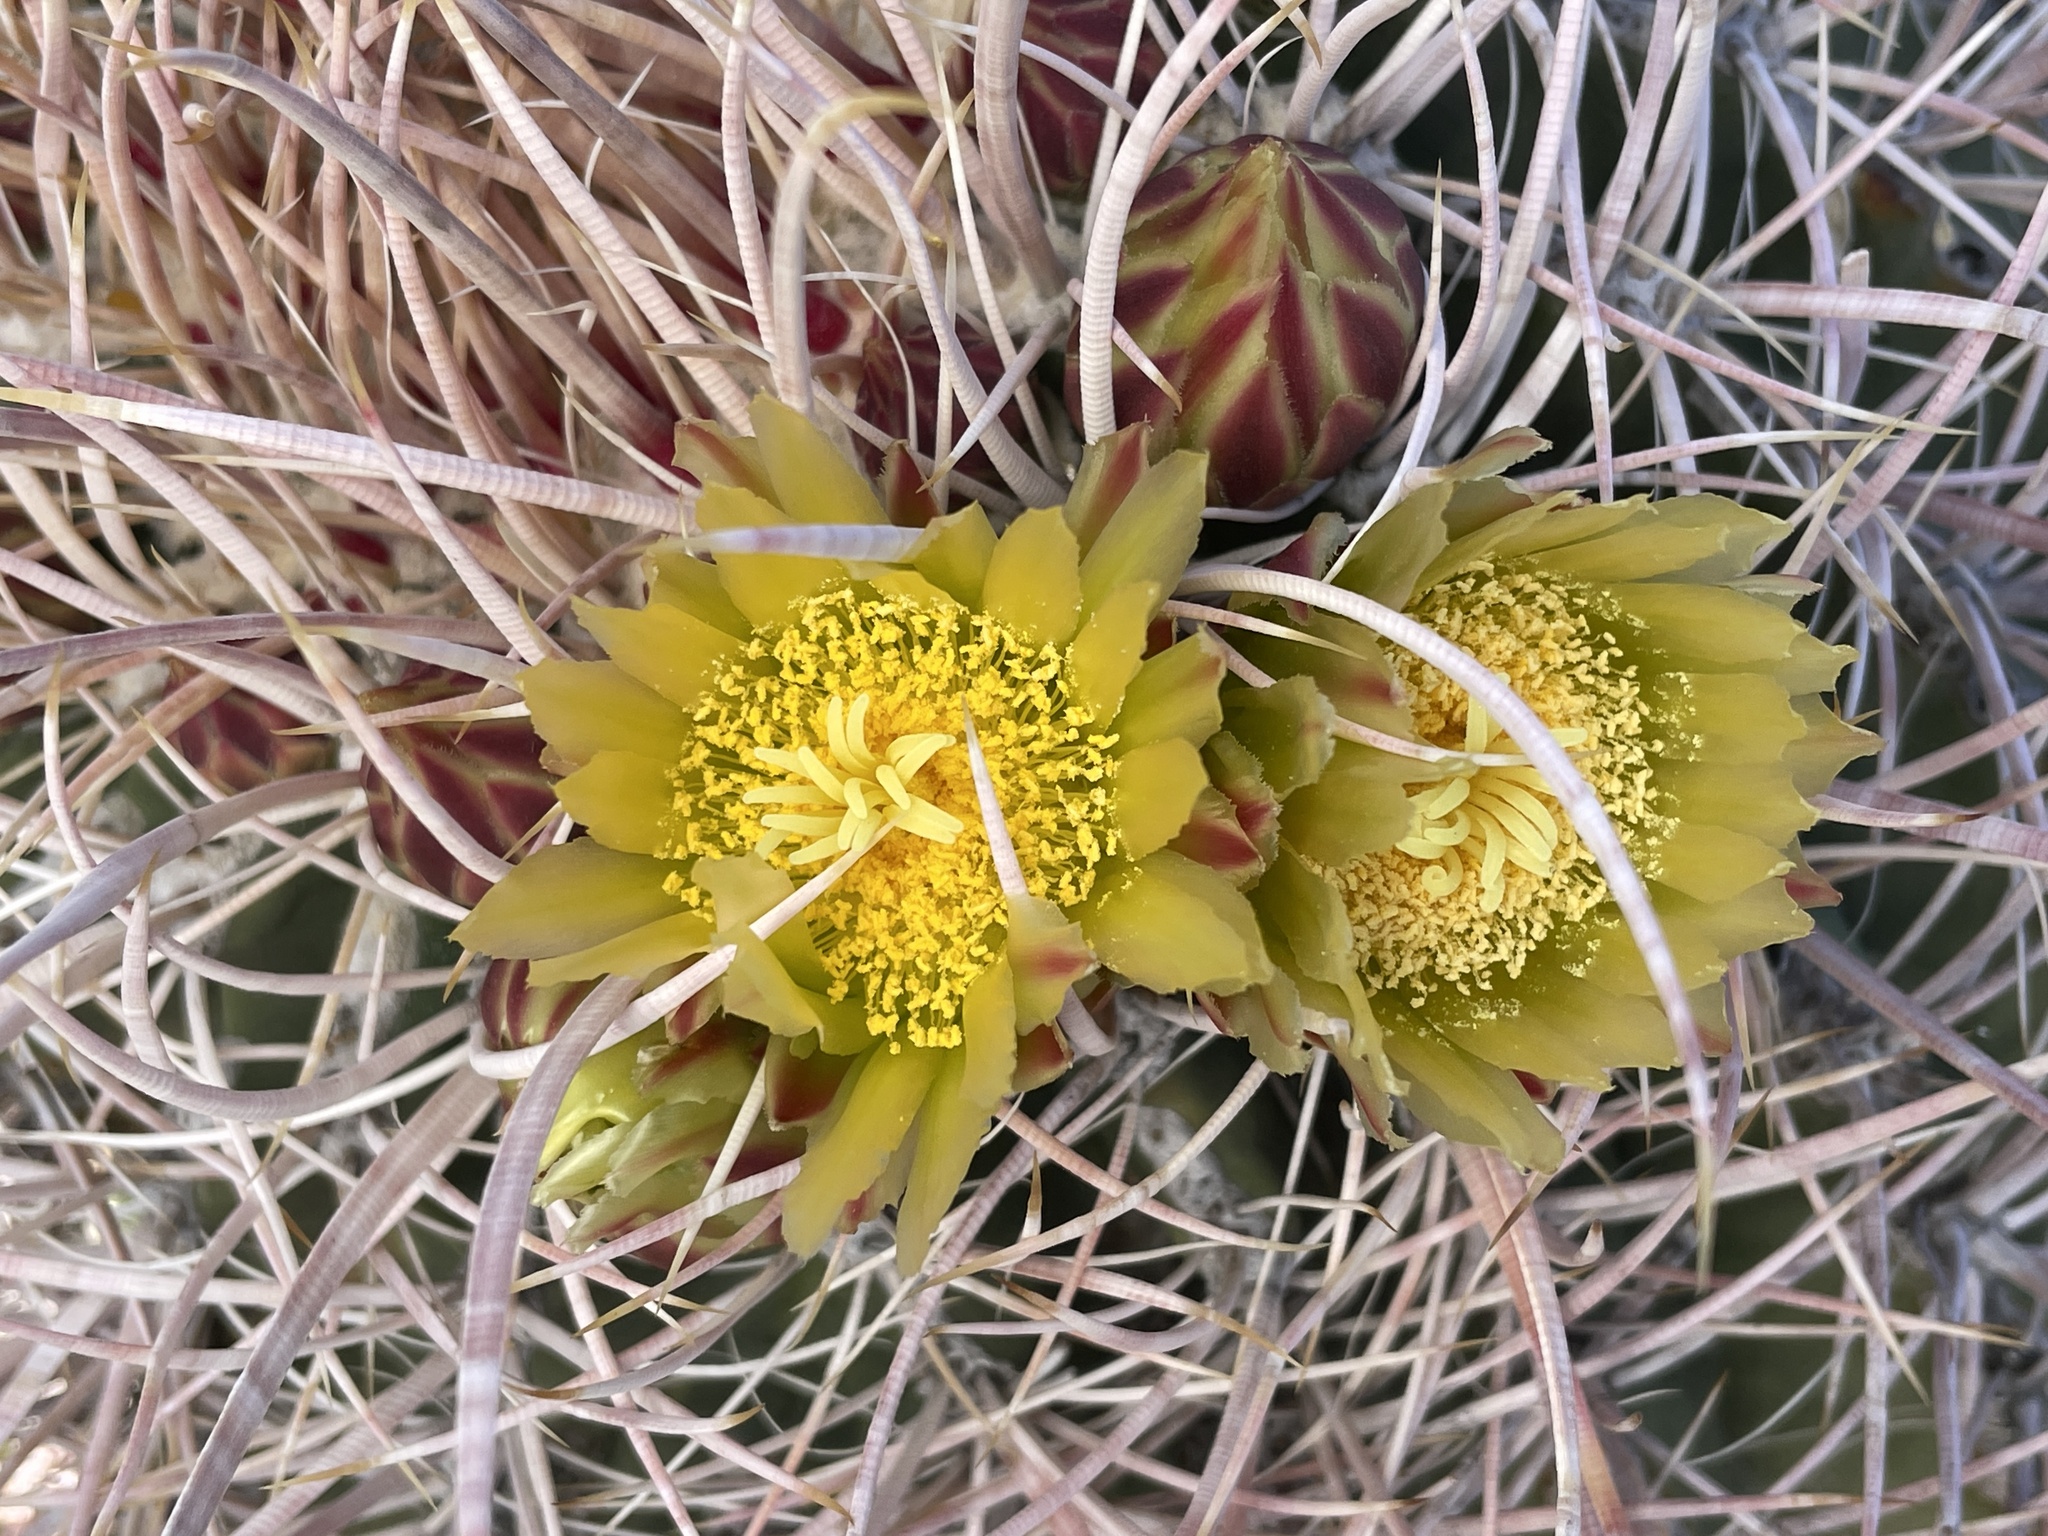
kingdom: Plantae
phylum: Tracheophyta
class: Magnoliopsida
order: Caryophyllales
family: Cactaceae
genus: Ferocactus
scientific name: Ferocactus cylindraceus
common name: California barrel cactus
